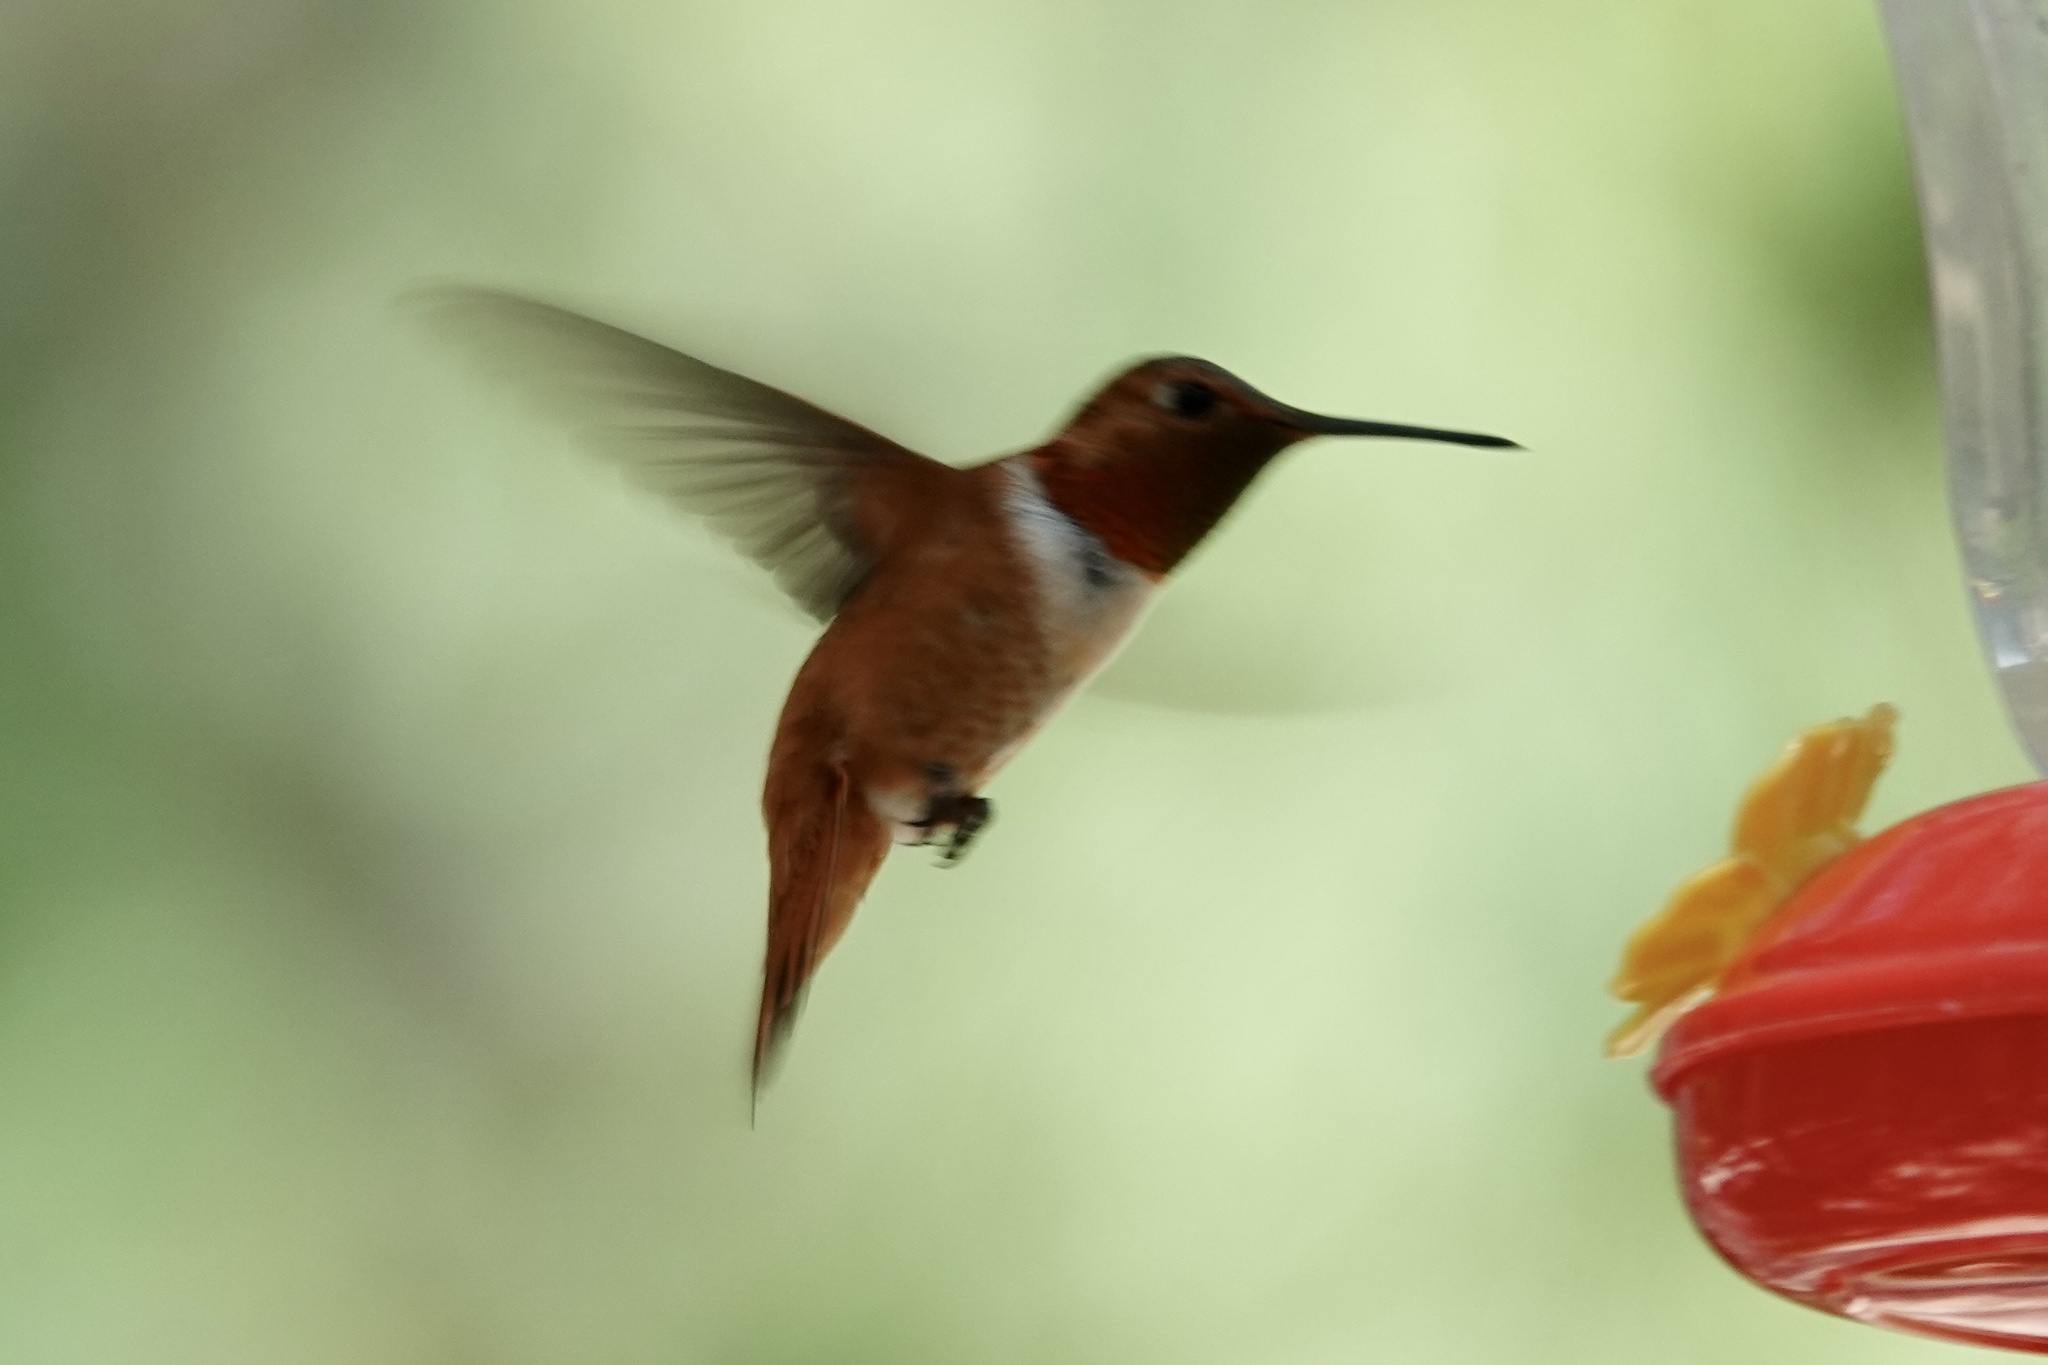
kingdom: Animalia
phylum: Chordata
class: Aves
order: Apodiformes
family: Trochilidae
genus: Selasphorus
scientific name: Selasphorus rufus
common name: Rufous hummingbird
